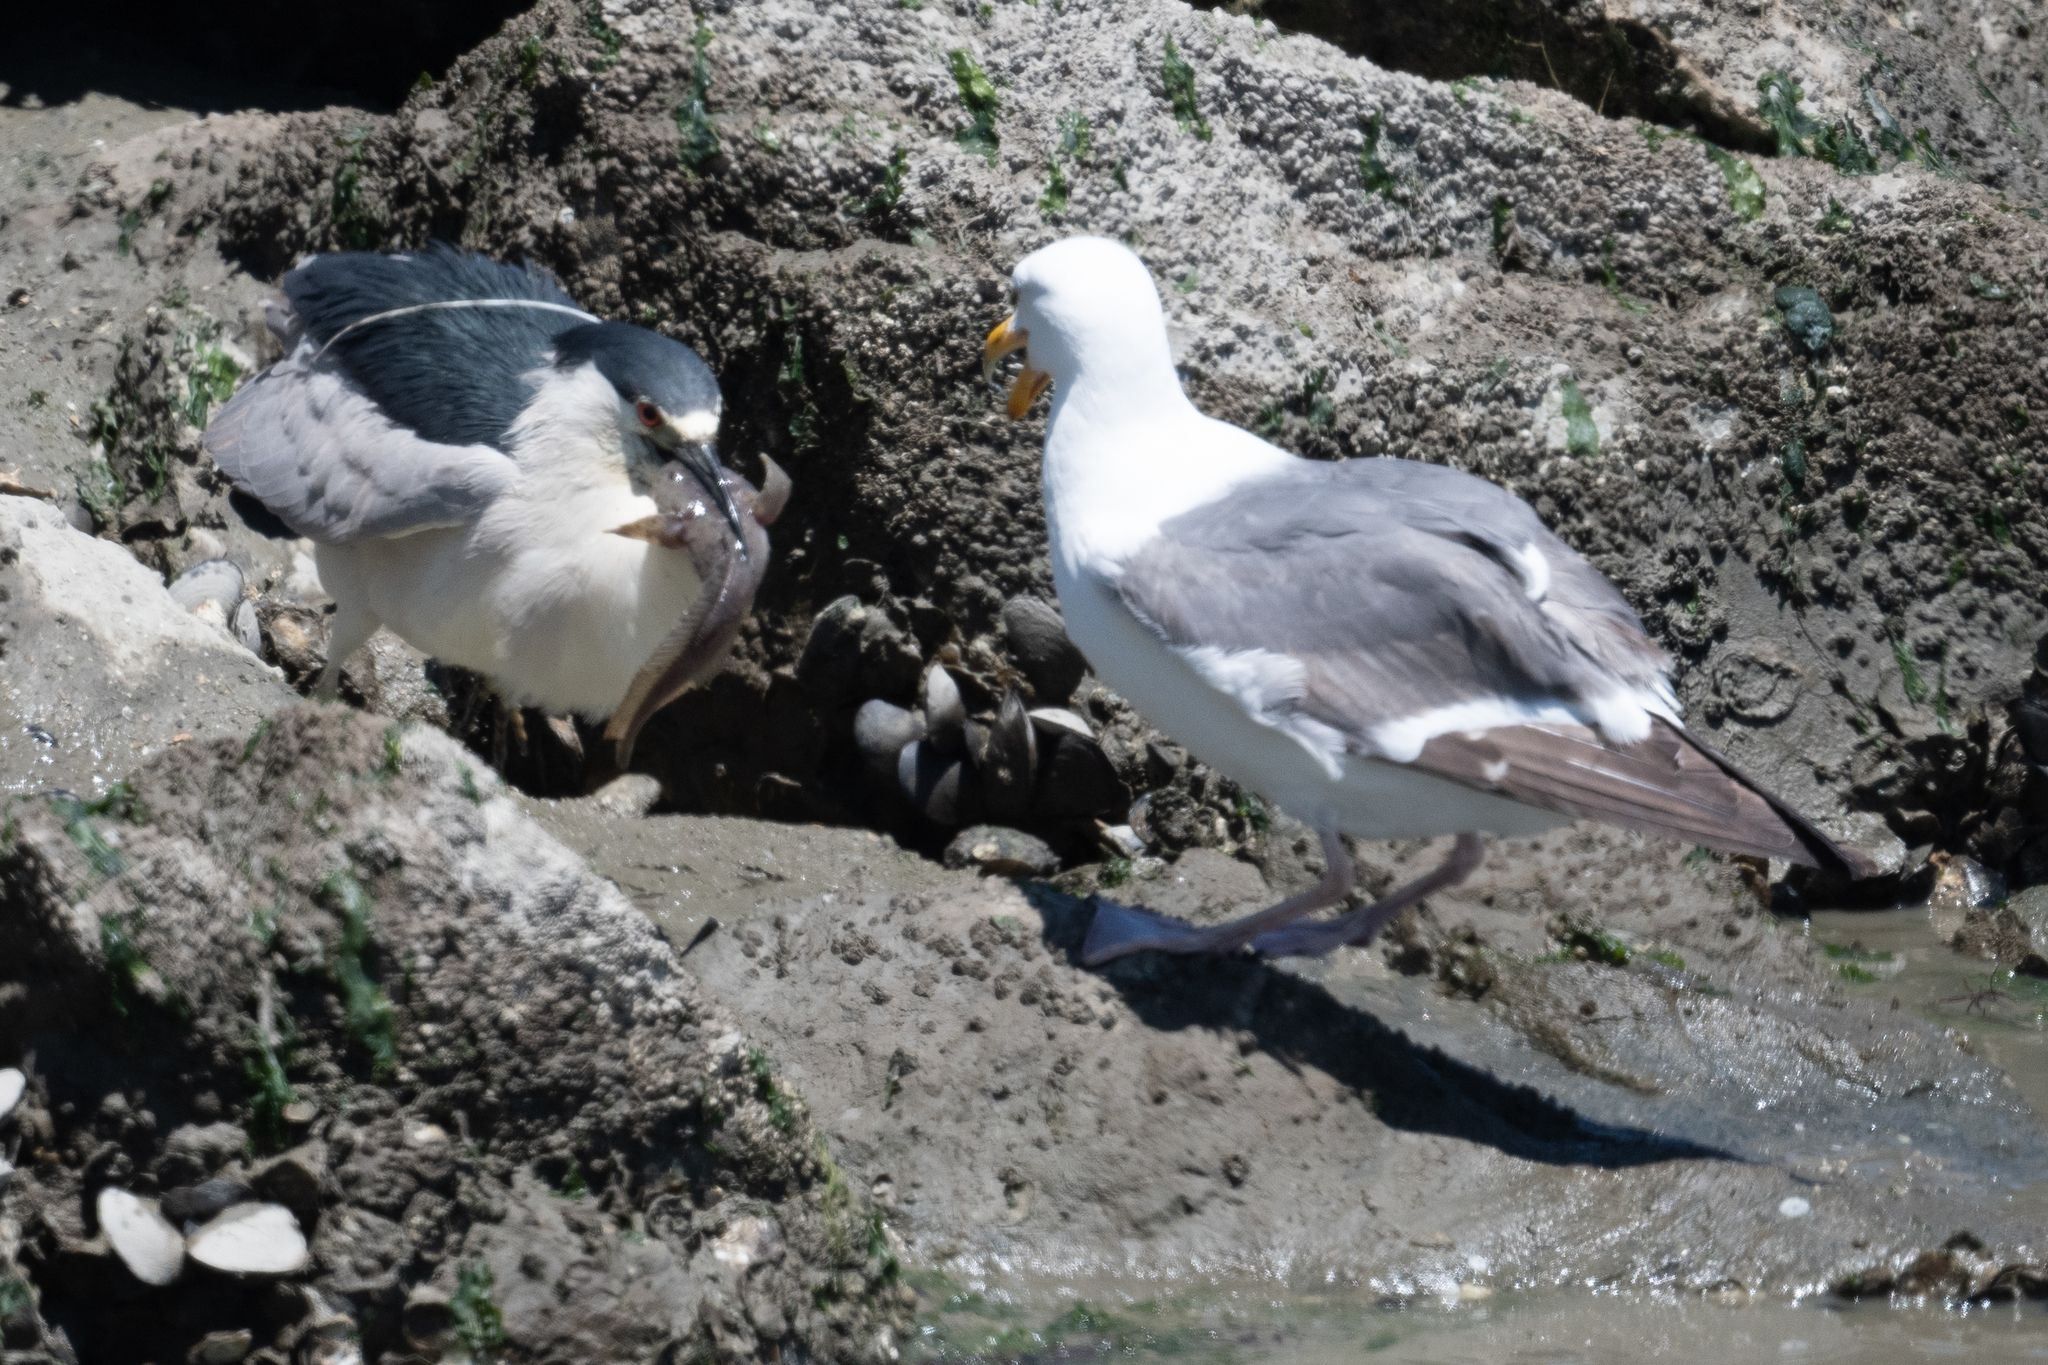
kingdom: Animalia
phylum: Chordata
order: Batrachoidiformes
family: Batrachoididae
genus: Porichthys
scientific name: Porichthys notatus
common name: Plainfin midshipman
